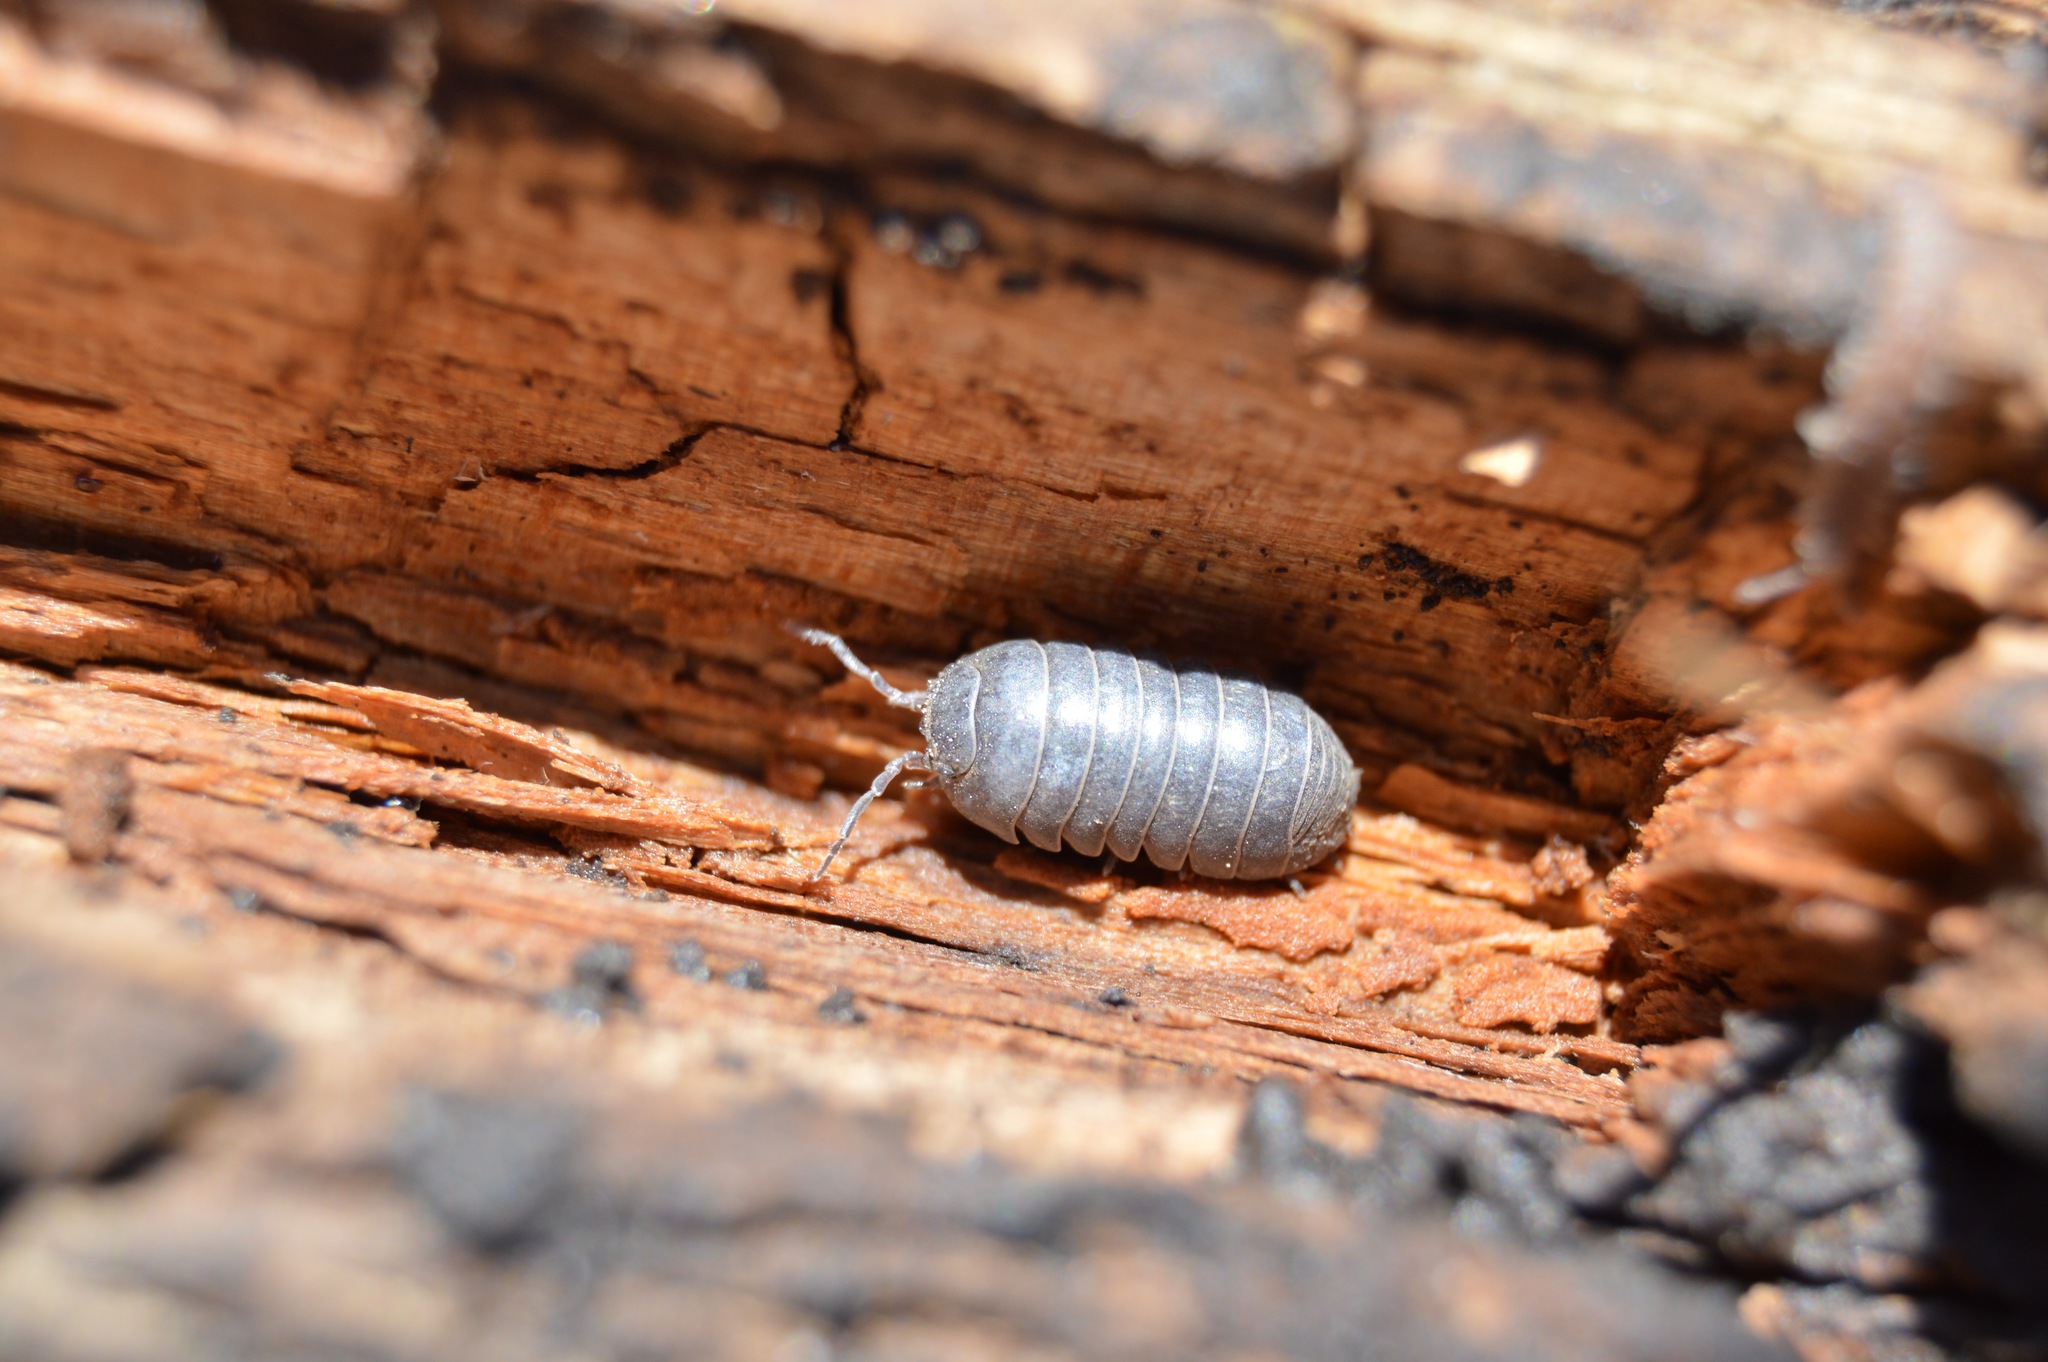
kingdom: Animalia
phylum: Arthropoda
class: Malacostraca
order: Isopoda
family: Armadillidiidae
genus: Armadillidium
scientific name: Armadillidium vulgare
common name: Common pill woodlouse
